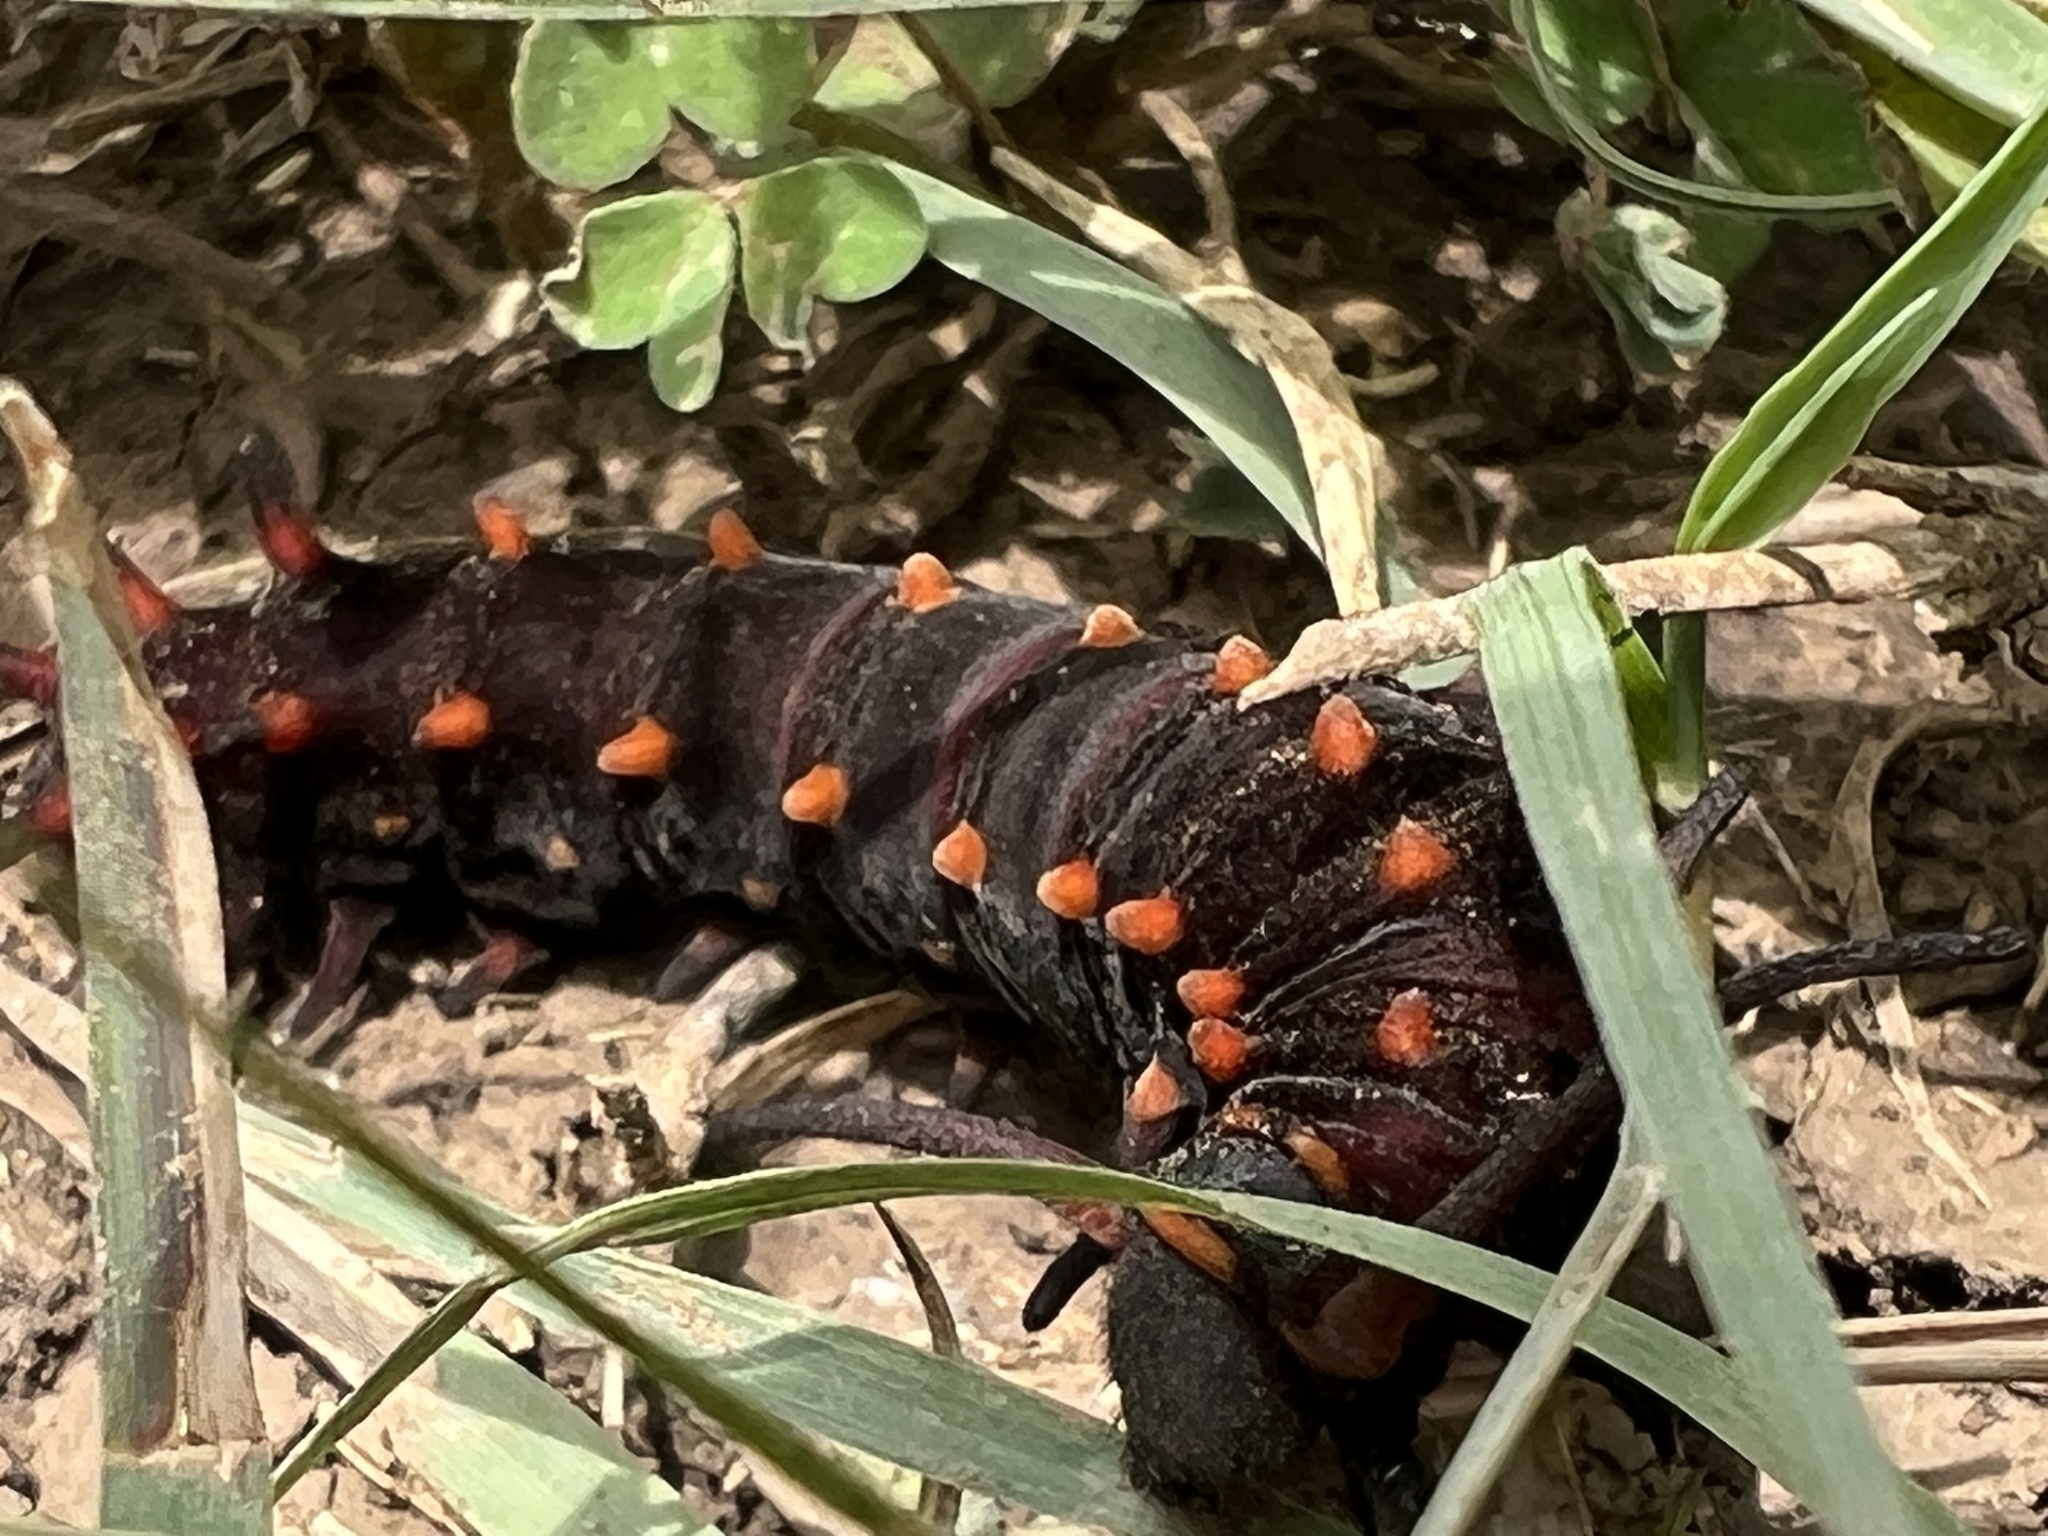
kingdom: Animalia
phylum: Arthropoda
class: Insecta
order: Lepidoptera
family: Papilionidae
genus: Battus
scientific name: Battus philenor
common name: Pipevine swallowtail
